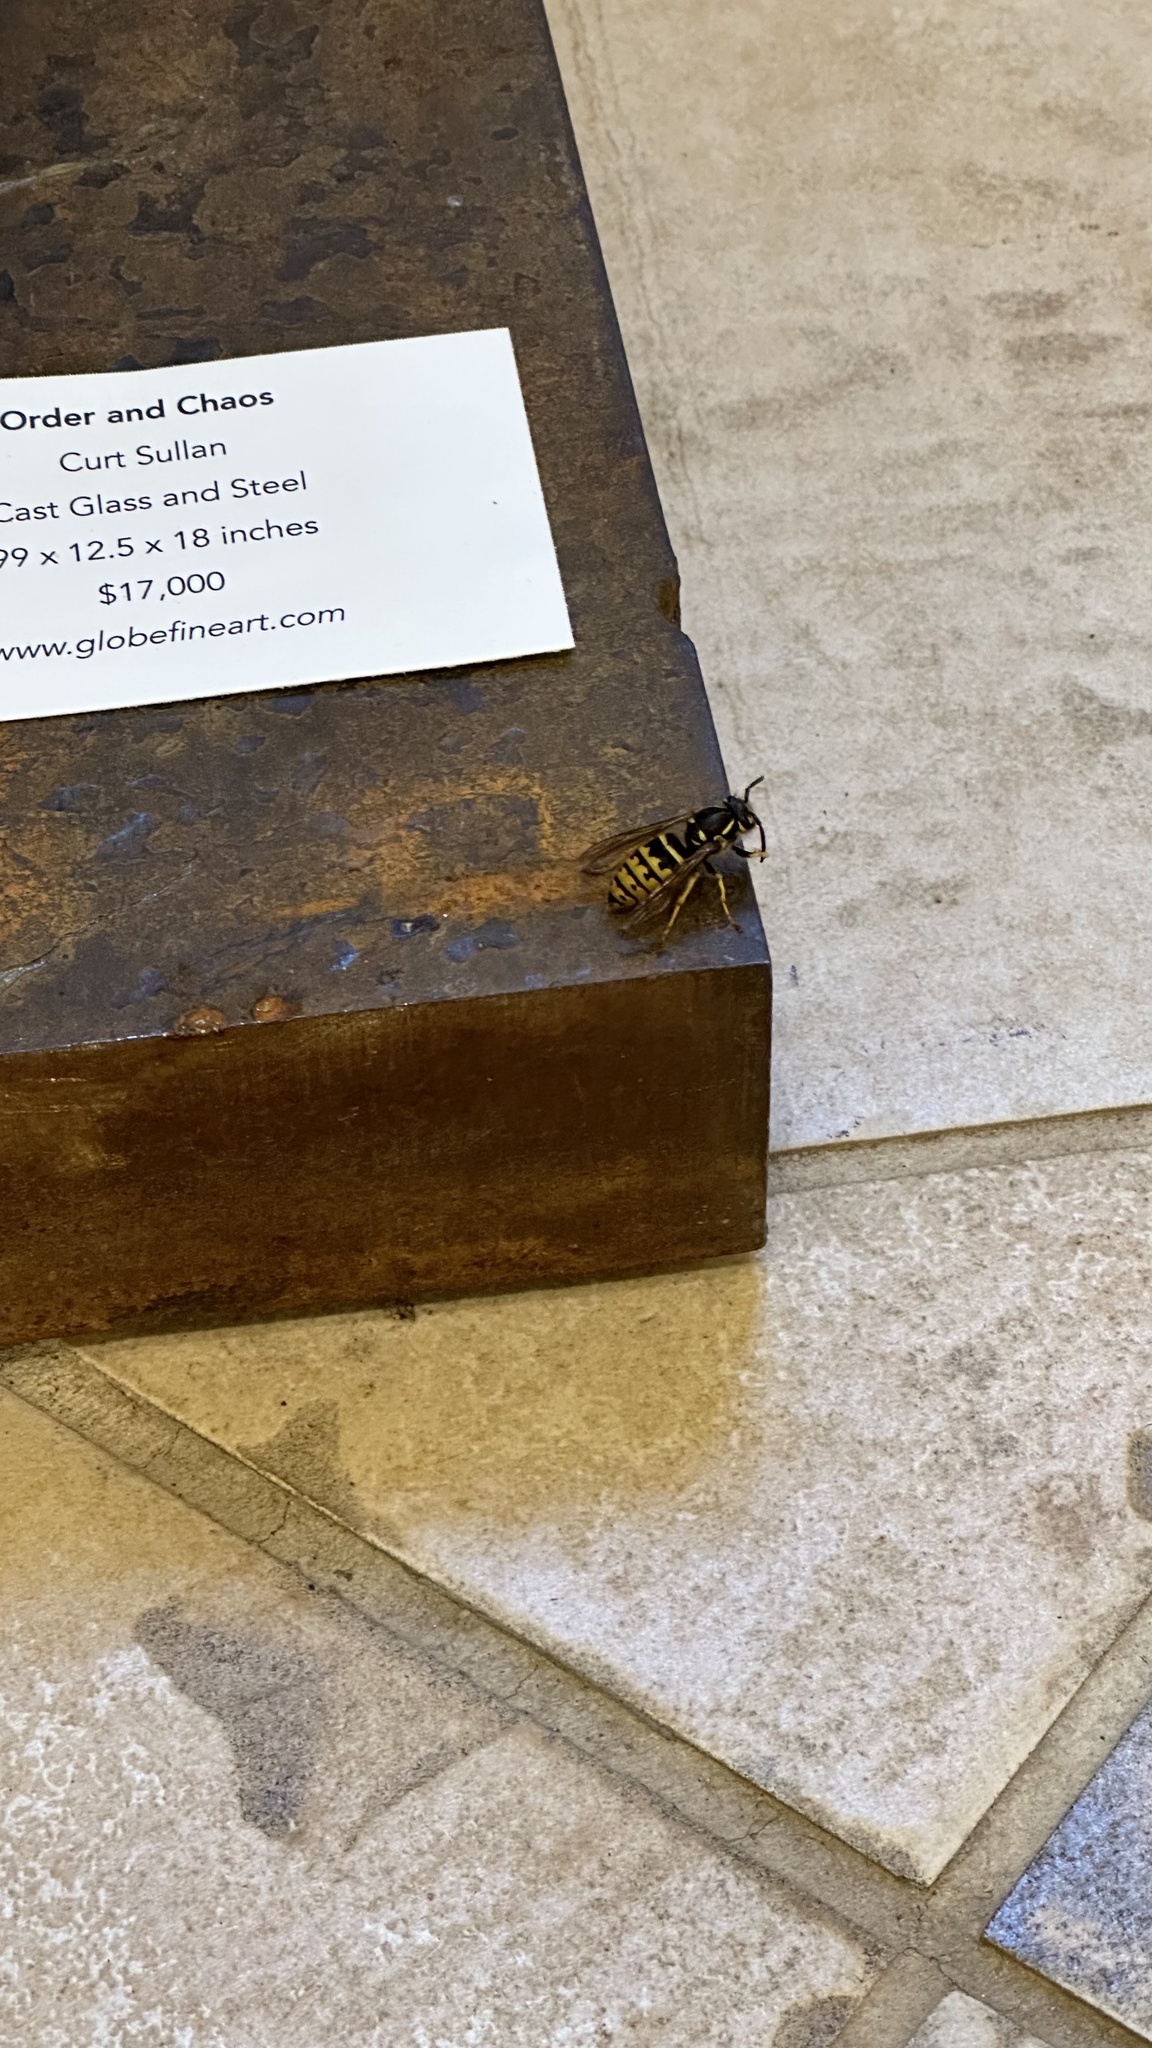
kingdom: Animalia
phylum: Arthropoda
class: Insecta
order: Hymenoptera
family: Vespidae
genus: Vespula
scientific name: Vespula alascensis
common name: Alaska yellowjacket
